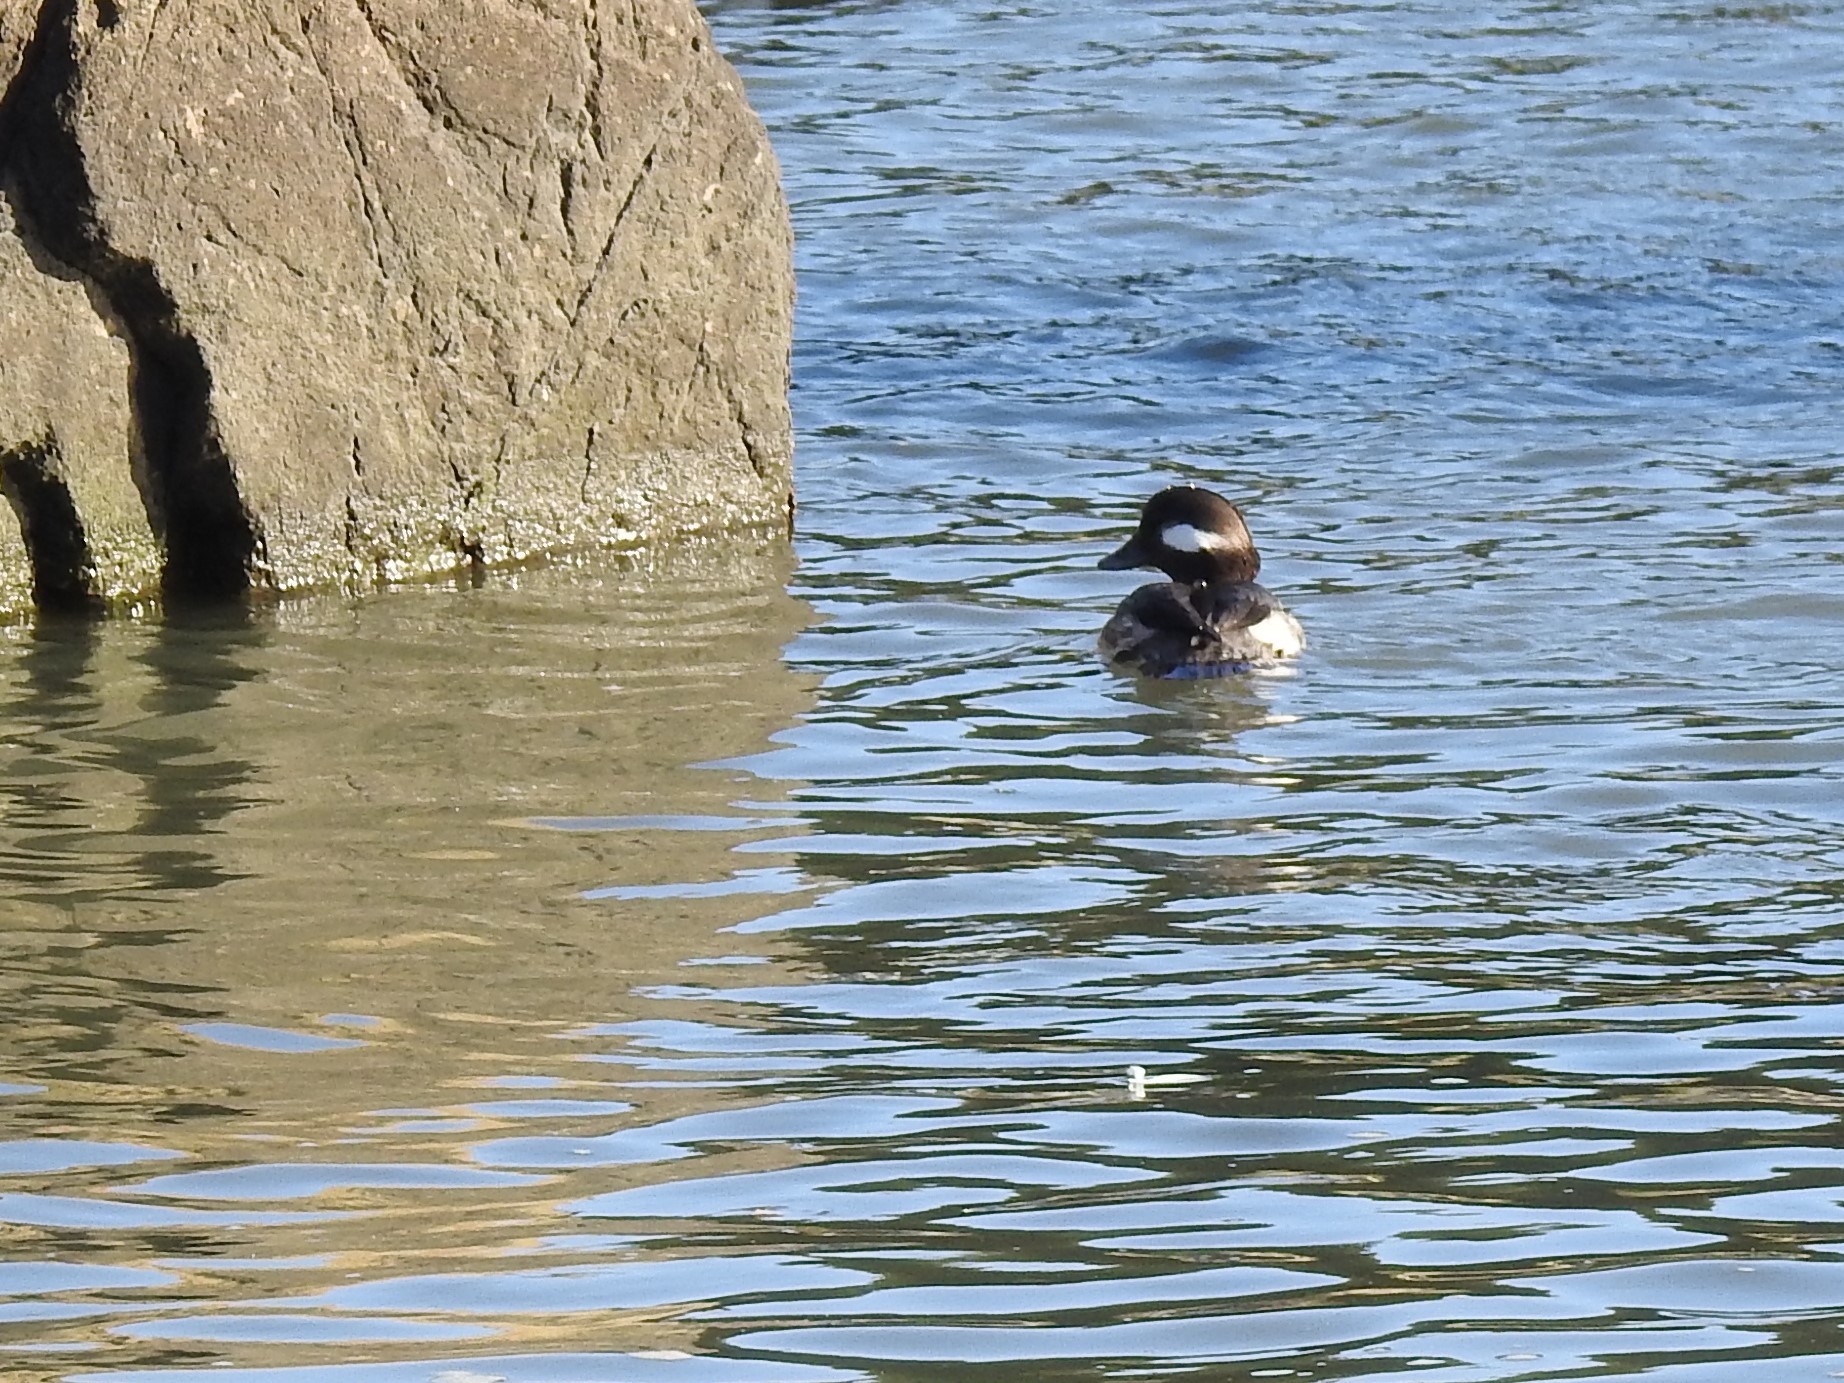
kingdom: Animalia
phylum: Chordata
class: Aves
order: Anseriformes
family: Anatidae
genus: Bucephala
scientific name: Bucephala albeola
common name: Bufflehead
